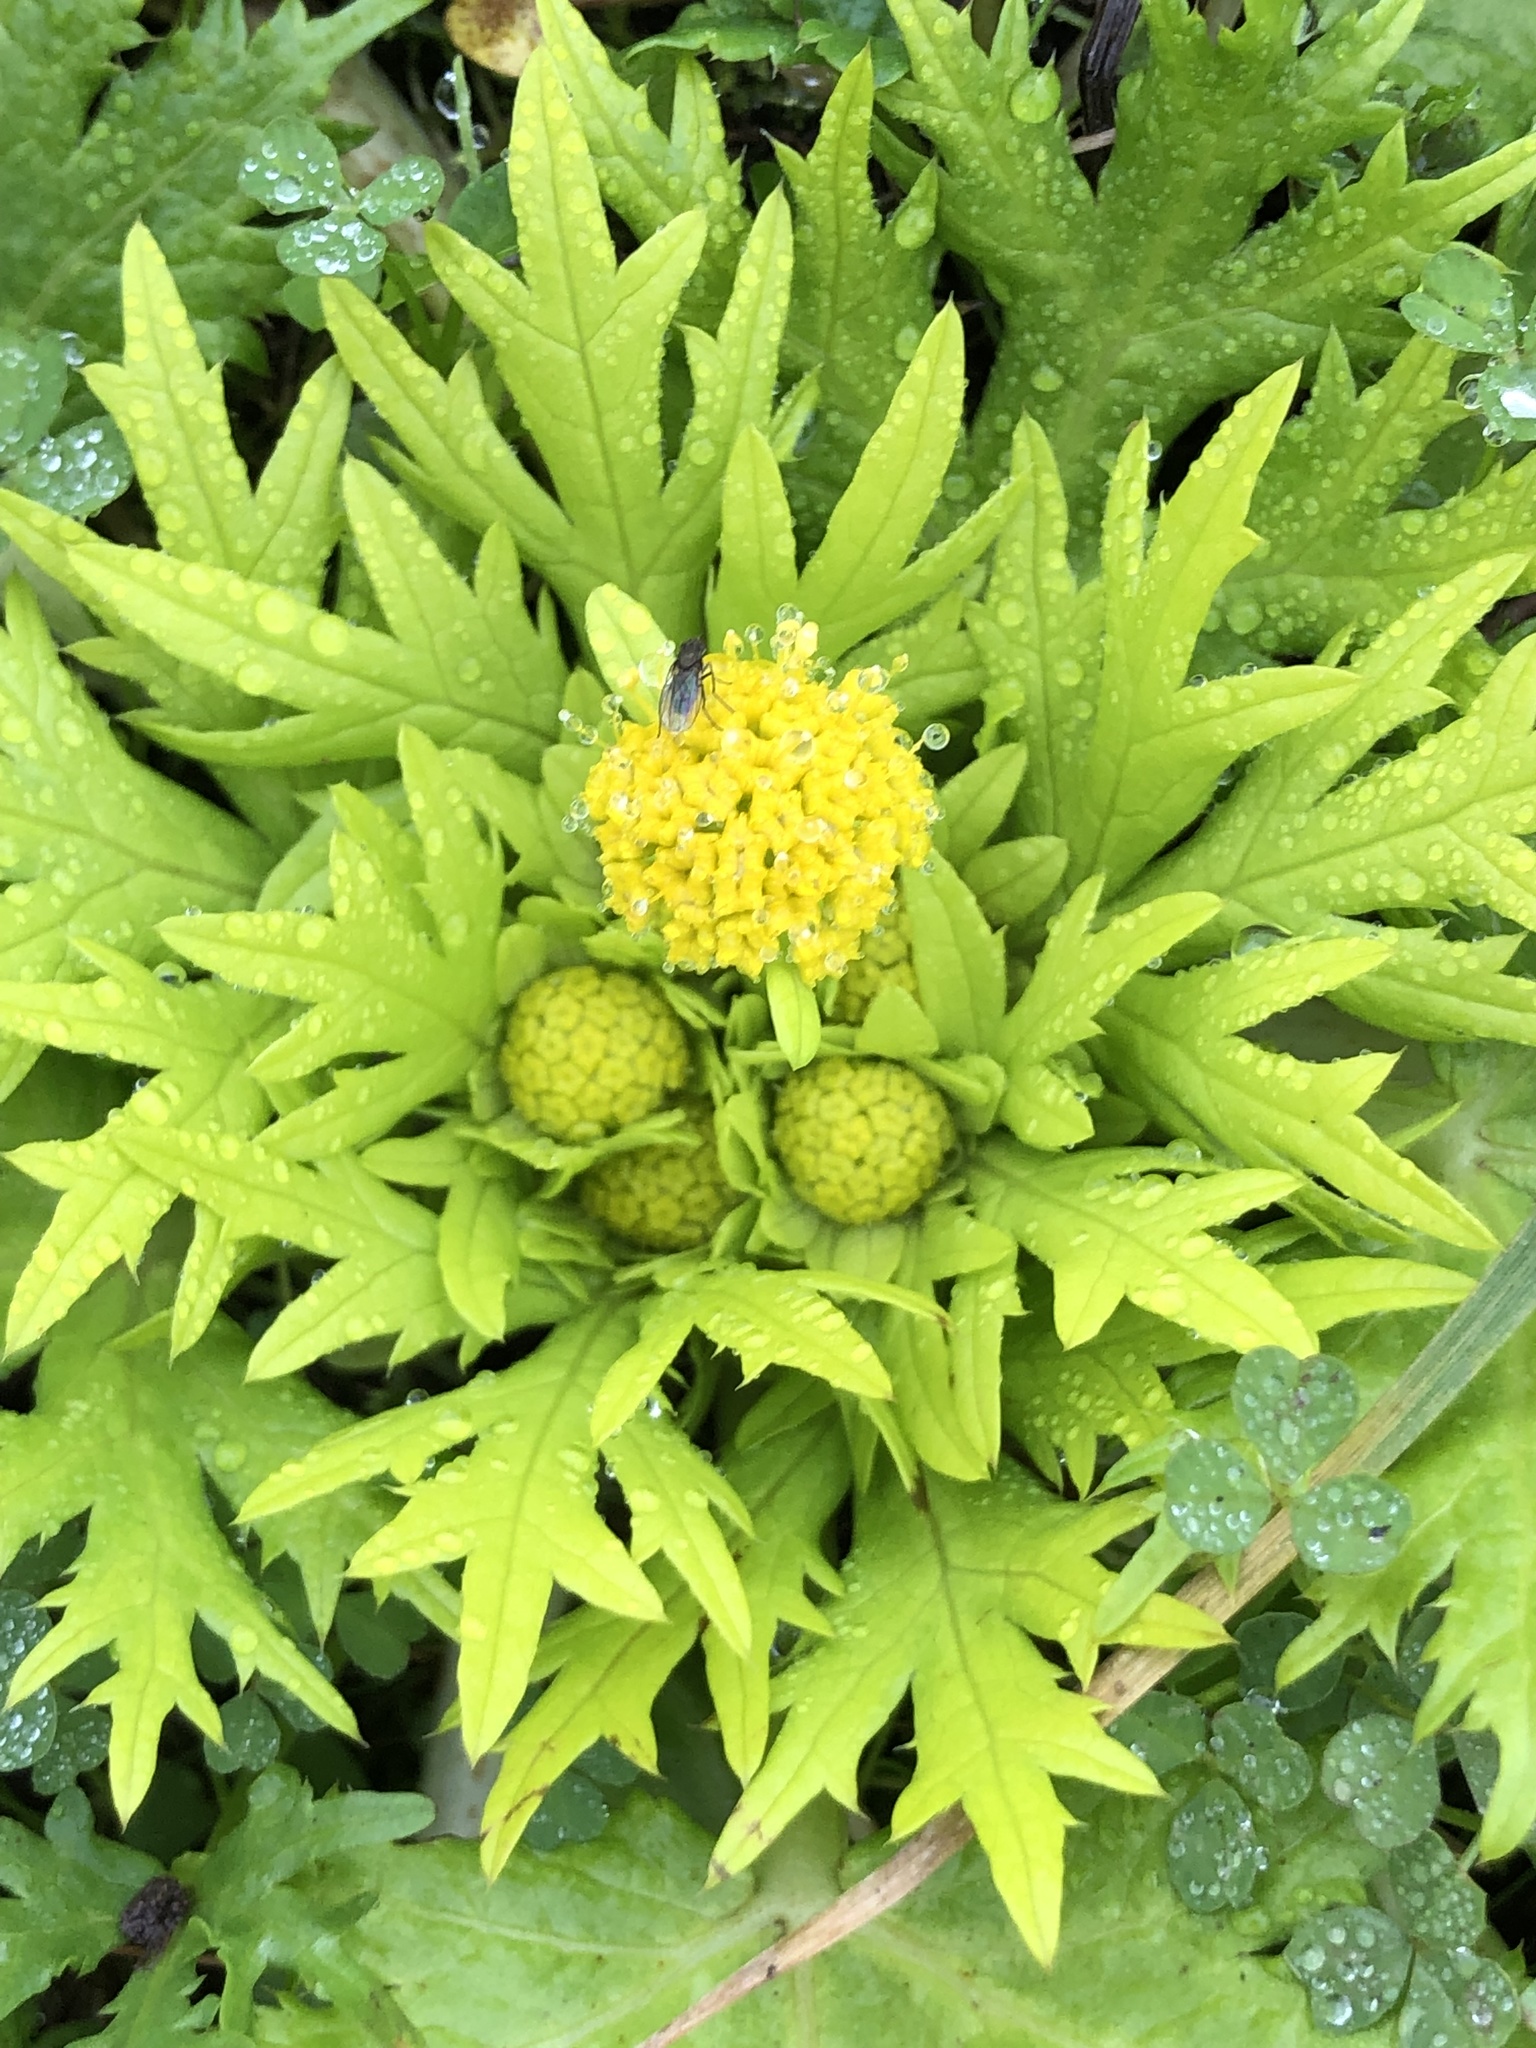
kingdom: Plantae
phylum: Tracheophyta
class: Magnoliopsida
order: Apiales
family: Apiaceae
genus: Sanicula
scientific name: Sanicula arctopoides
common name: Footsteps-of-spring
